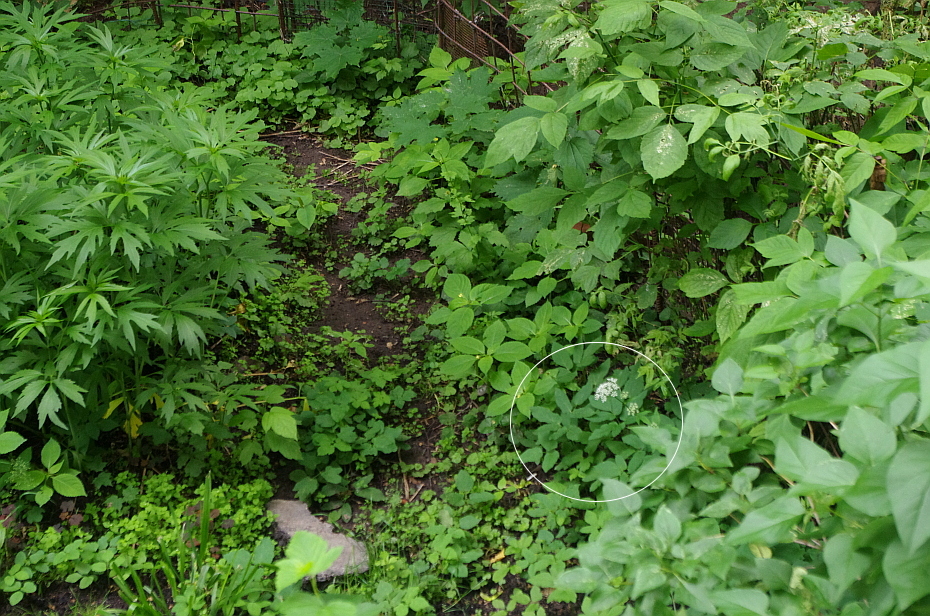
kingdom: Plantae
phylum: Tracheophyta
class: Magnoliopsida
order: Apiales
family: Apiaceae
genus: Aegopodium
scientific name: Aegopodium podagraria
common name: Ground-elder
